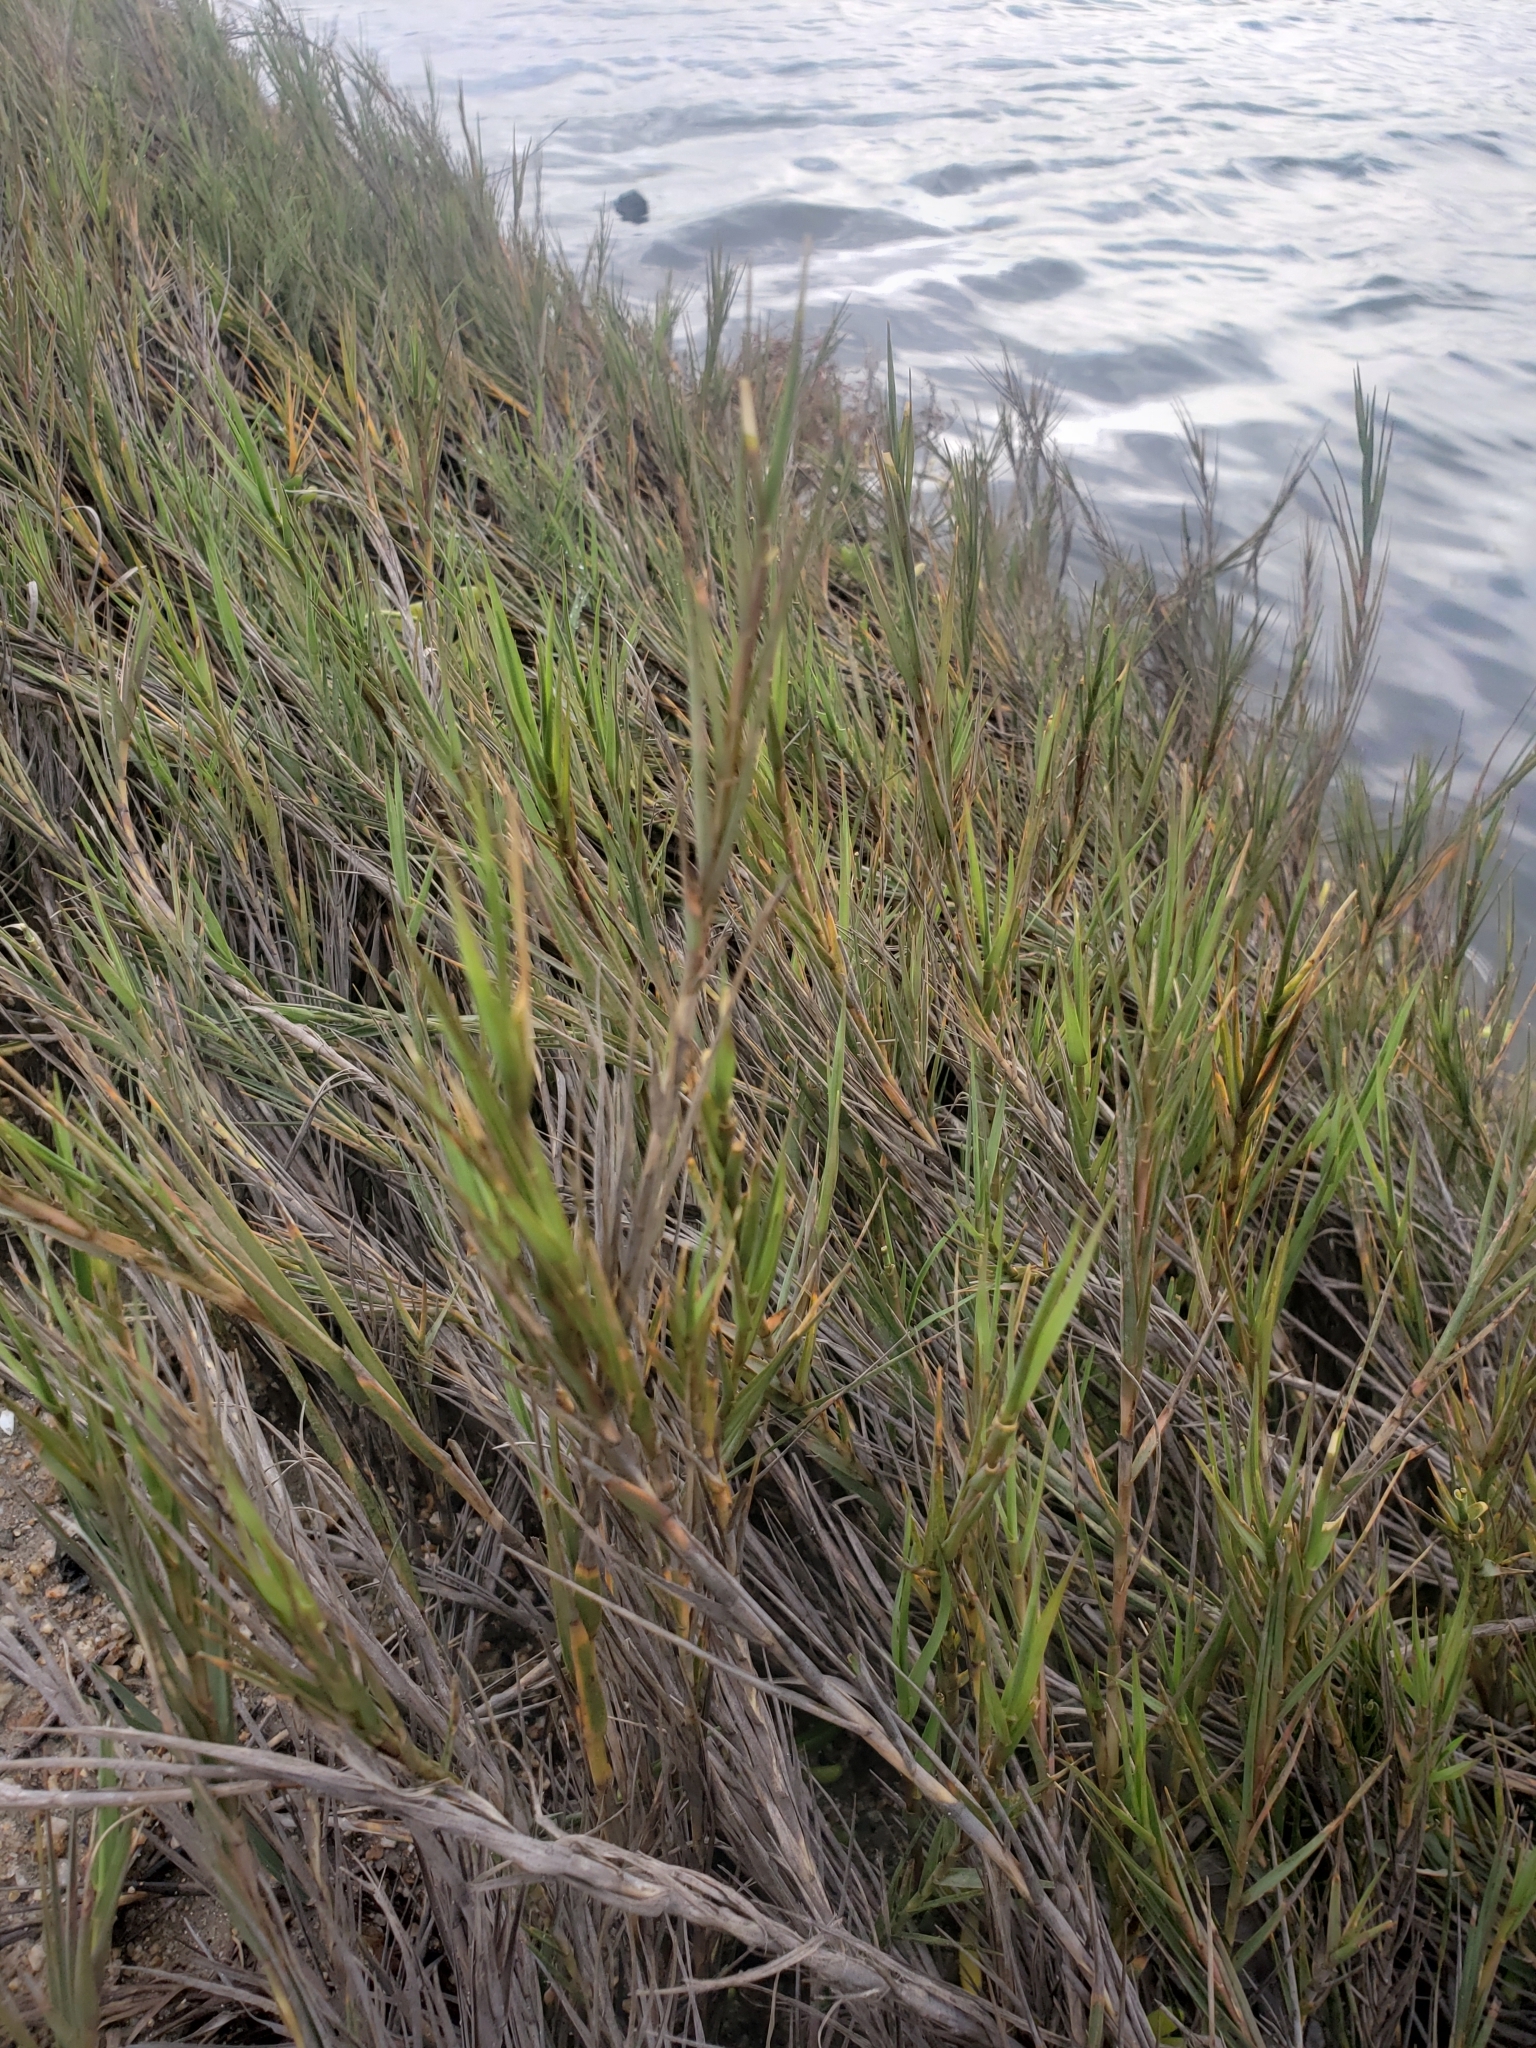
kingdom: Plantae
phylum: Tracheophyta
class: Liliopsida
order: Poales
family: Poaceae
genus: Distichlis
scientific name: Distichlis spicata
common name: Saltgrass
